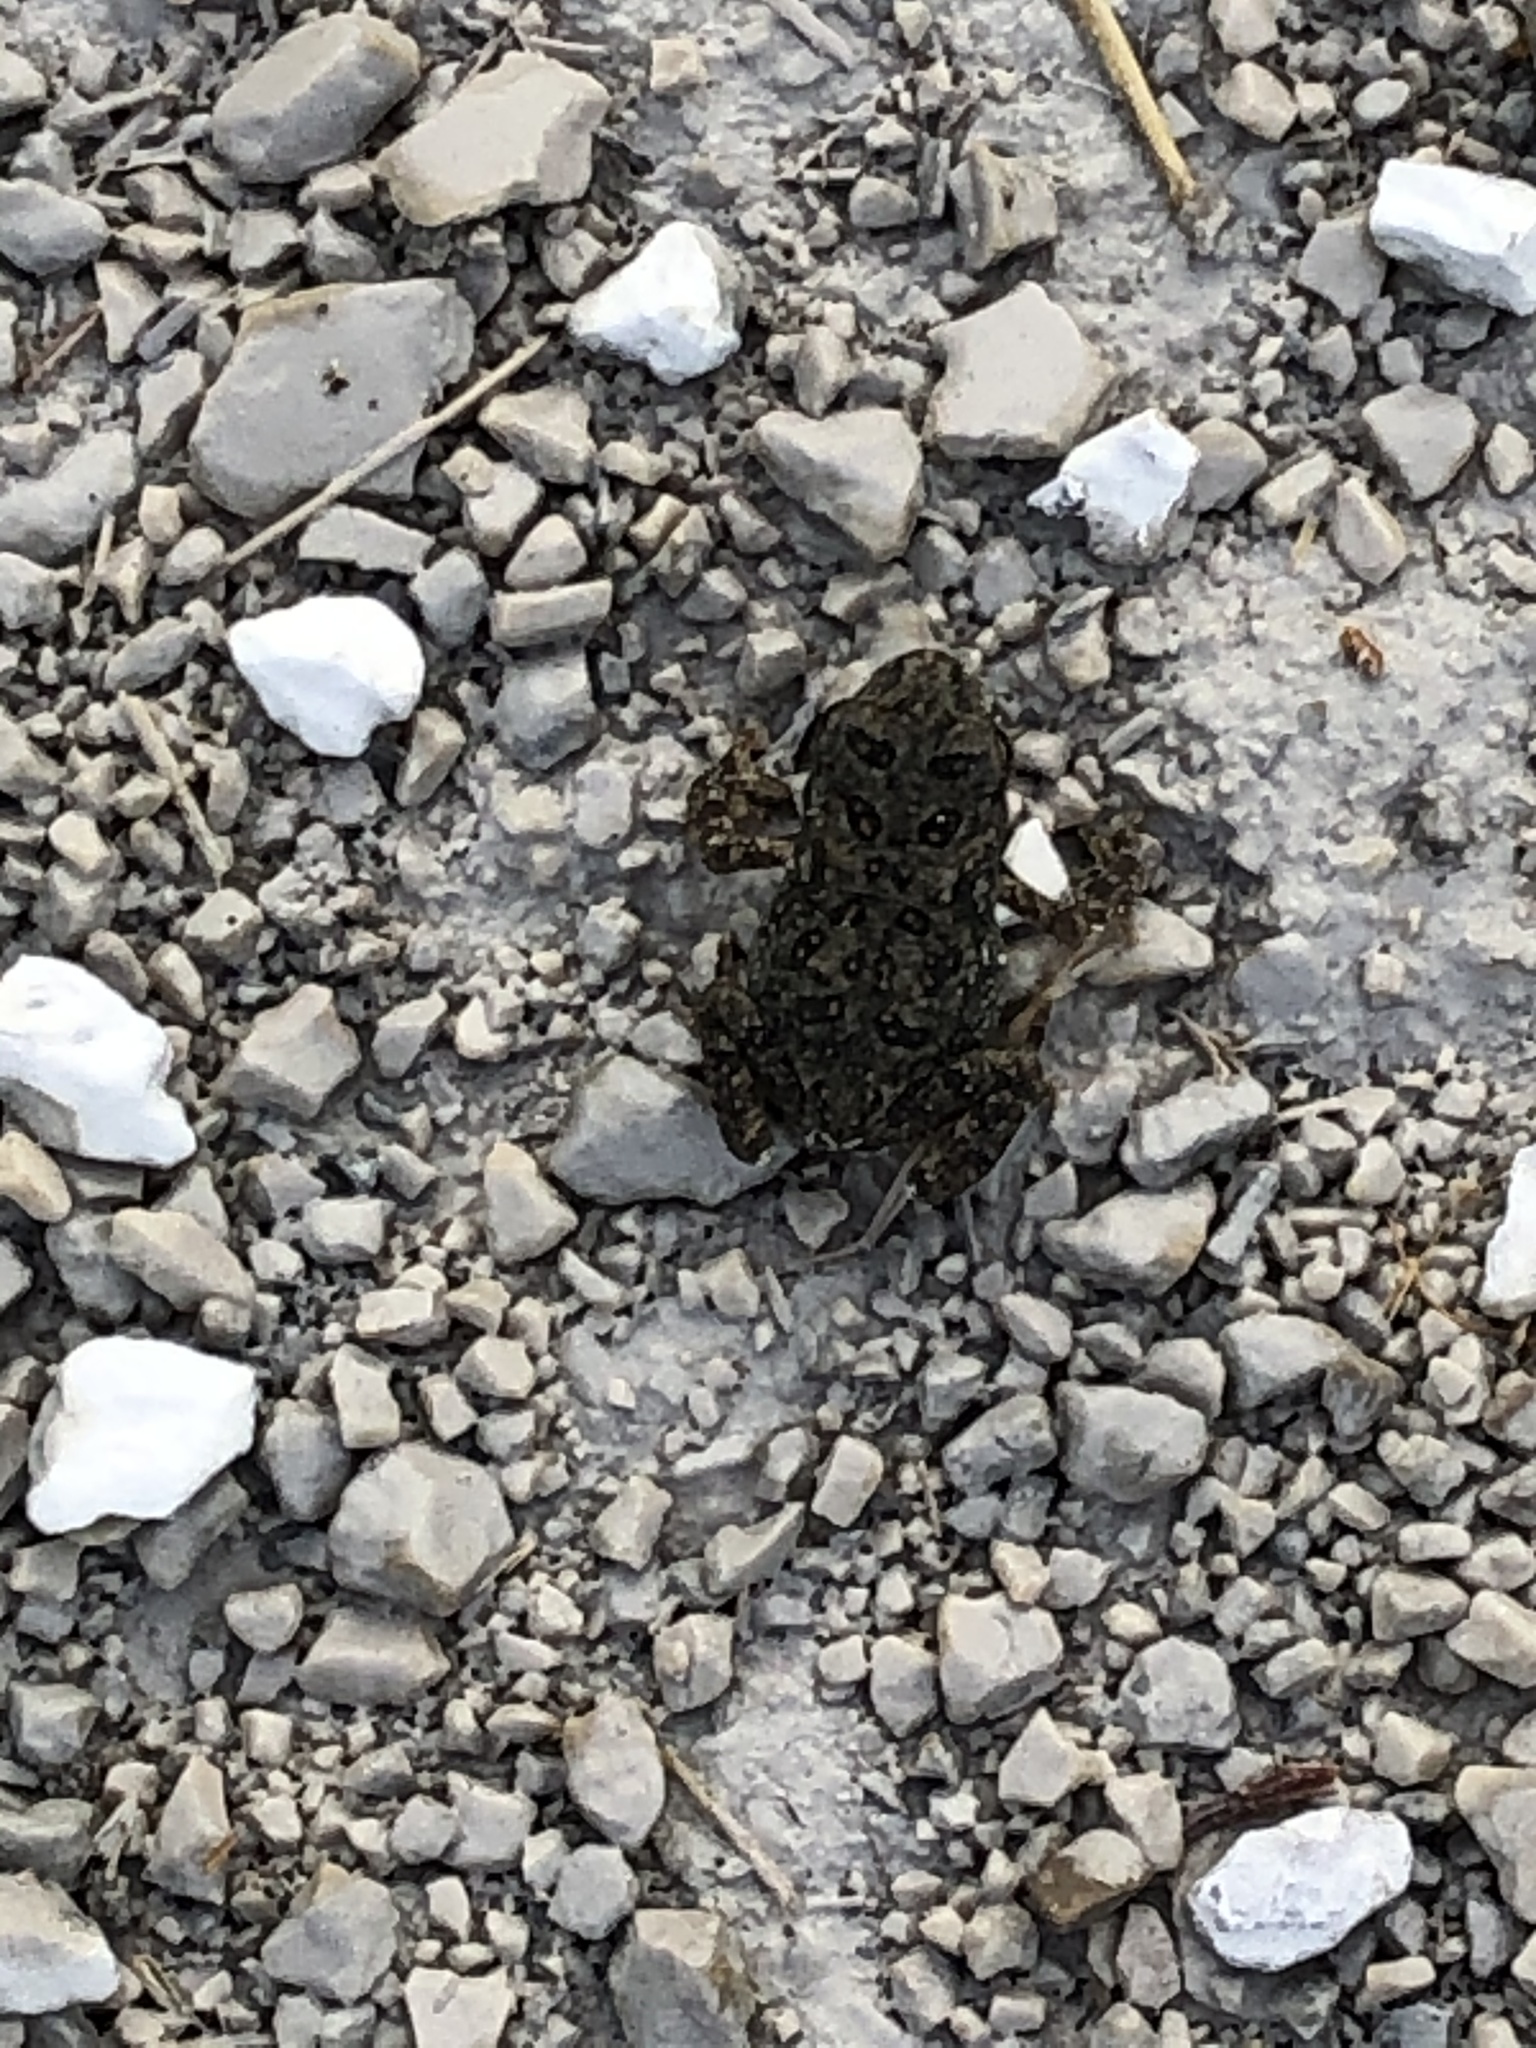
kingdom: Animalia
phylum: Chordata
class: Amphibia
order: Anura
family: Bufonidae
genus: Anaxyrus
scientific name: Anaxyrus americanus
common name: American toad
